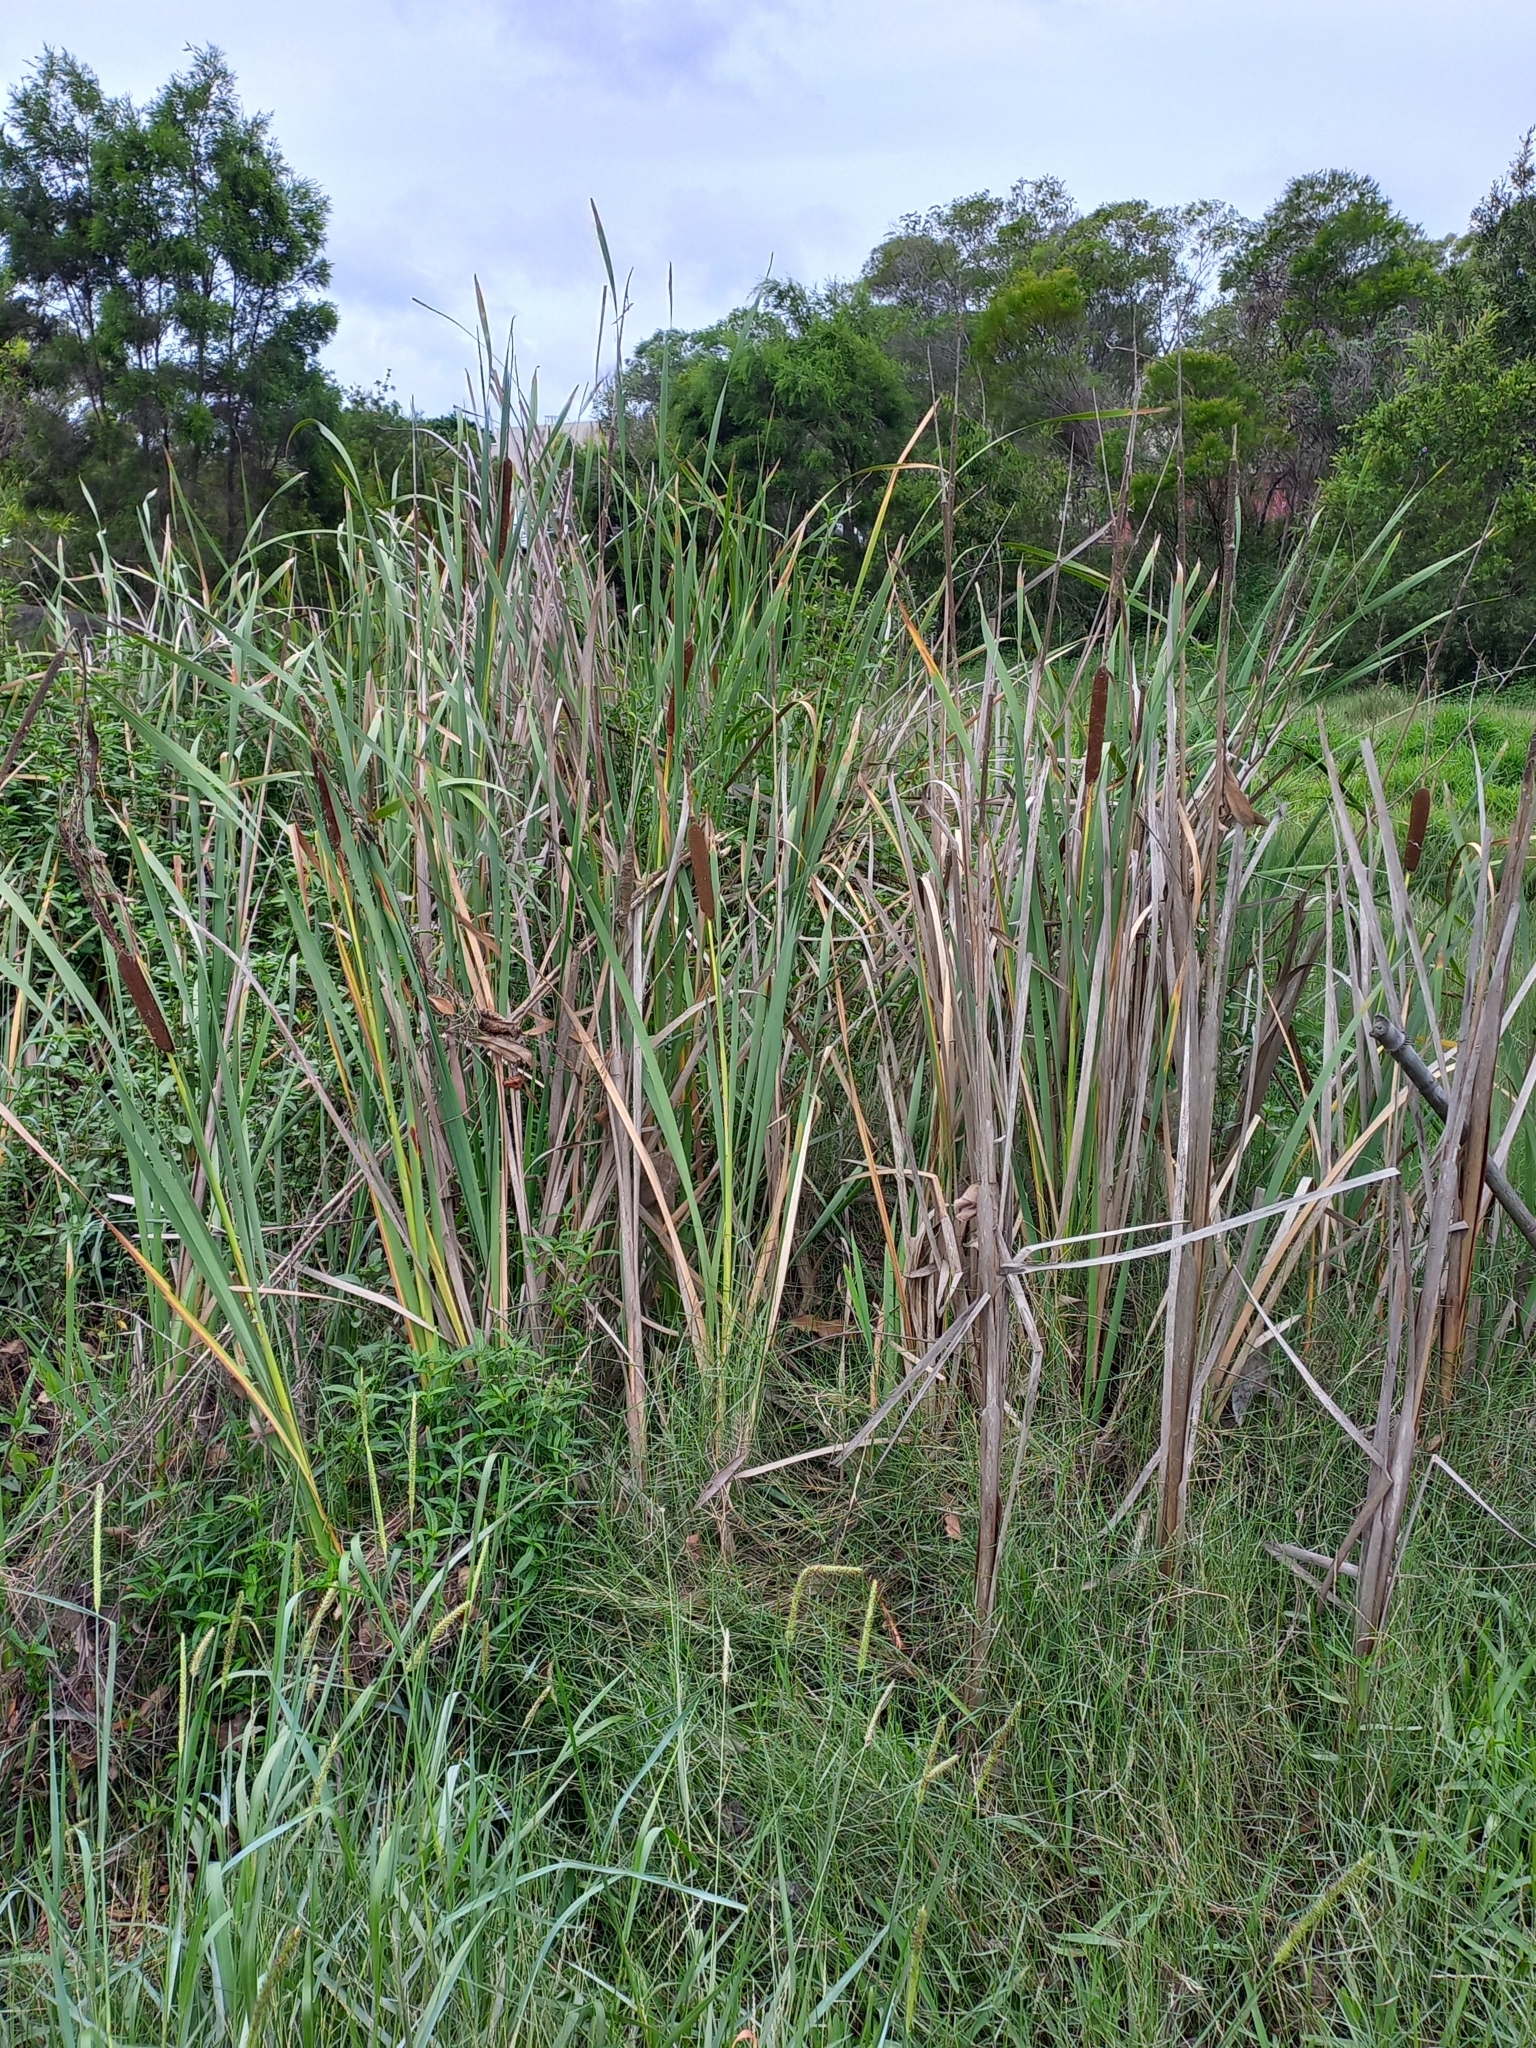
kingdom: Plantae
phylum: Tracheophyta
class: Liliopsida
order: Poales
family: Typhaceae
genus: Typha
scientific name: Typha orientalis
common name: Bullrush
